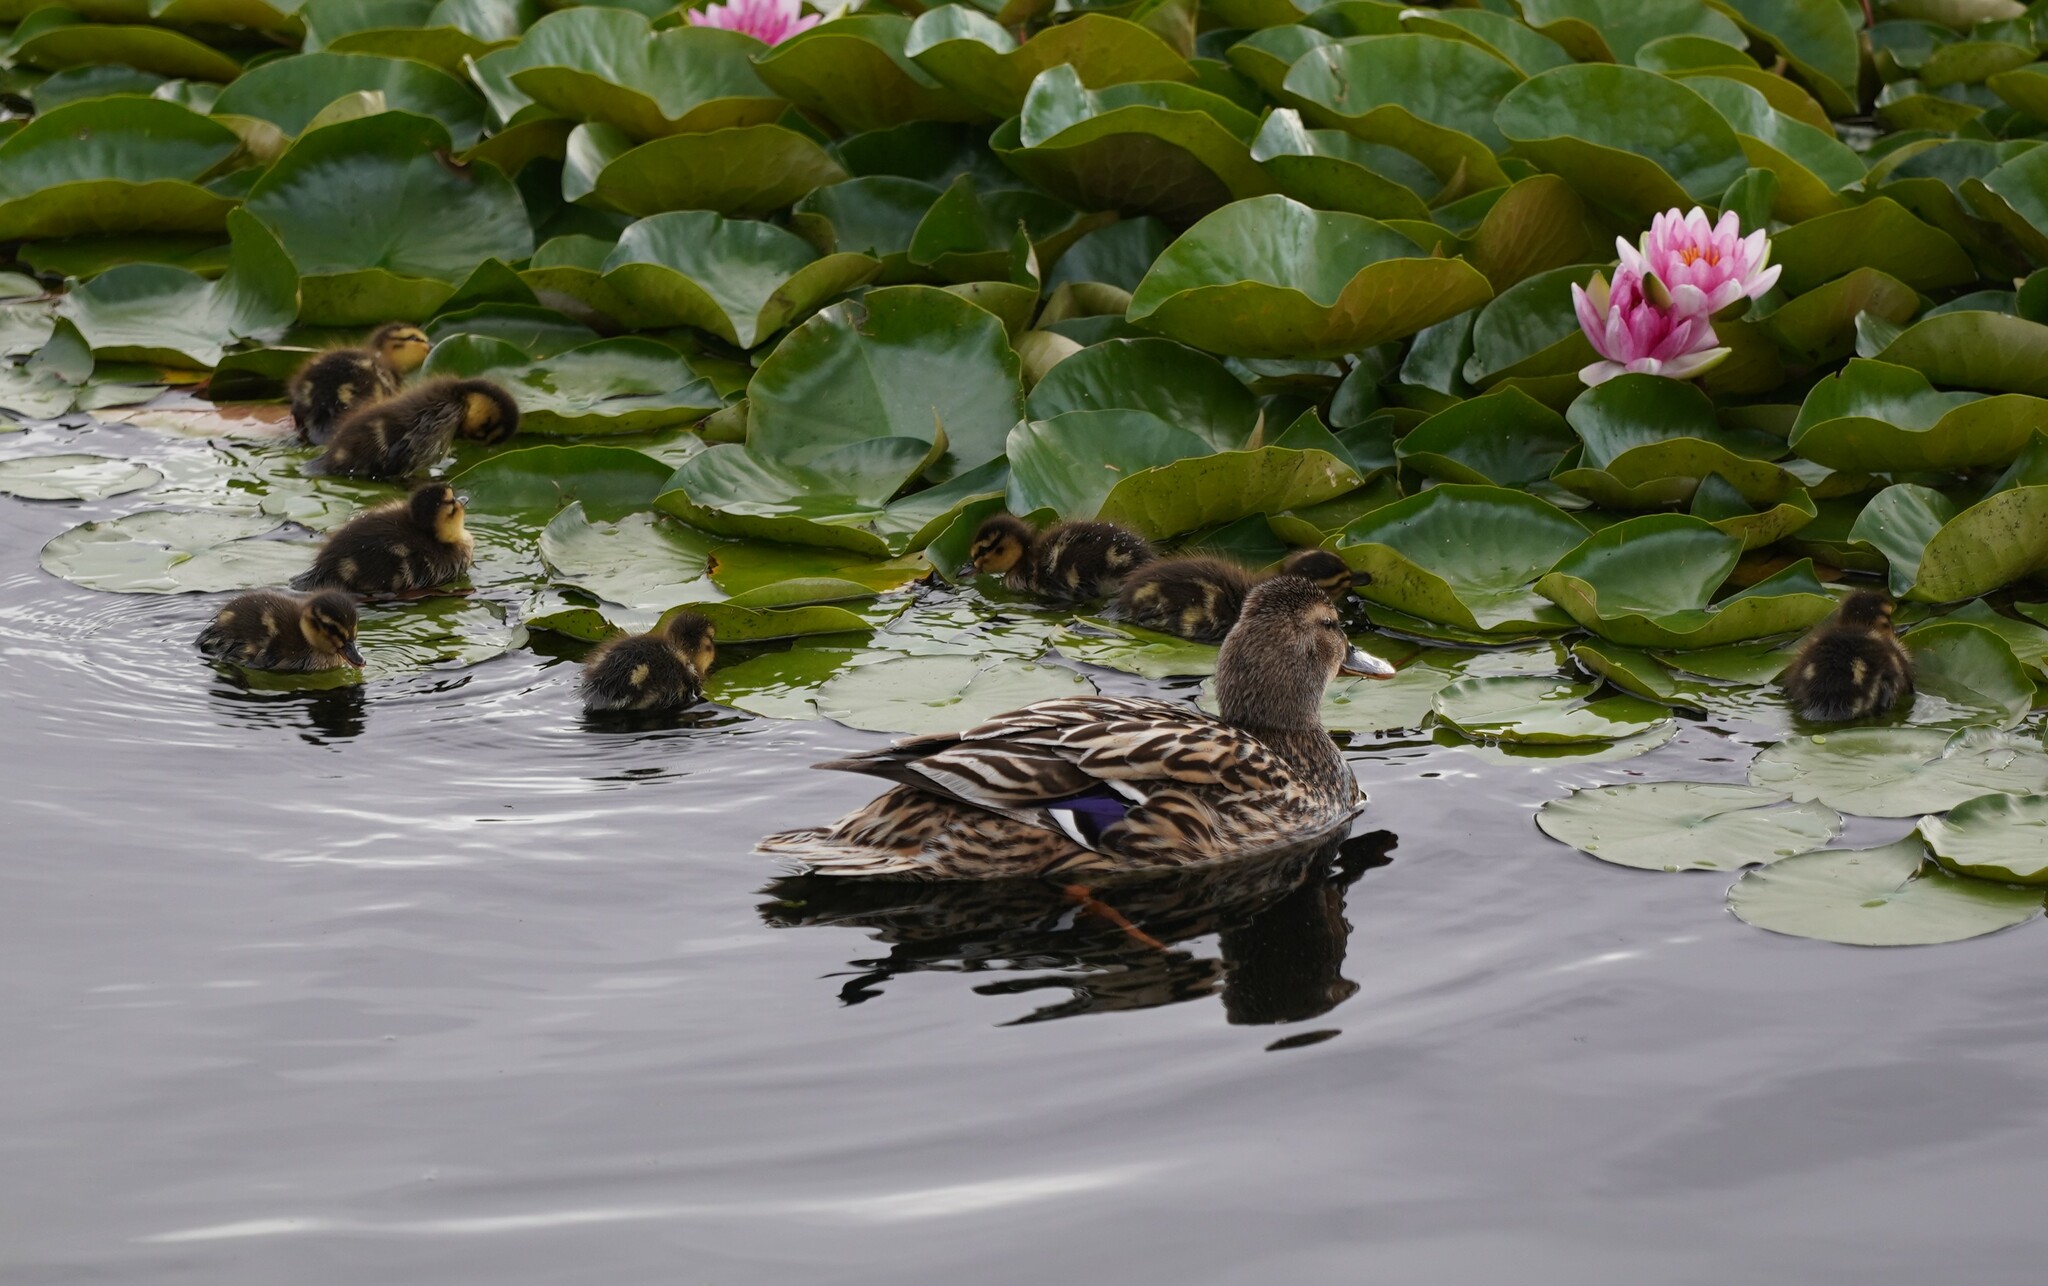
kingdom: Animalia
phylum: Chordata
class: Aves
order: Anseriformes
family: Anatidae
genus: Anas
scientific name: Anas platyrhynchos
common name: Mallard
